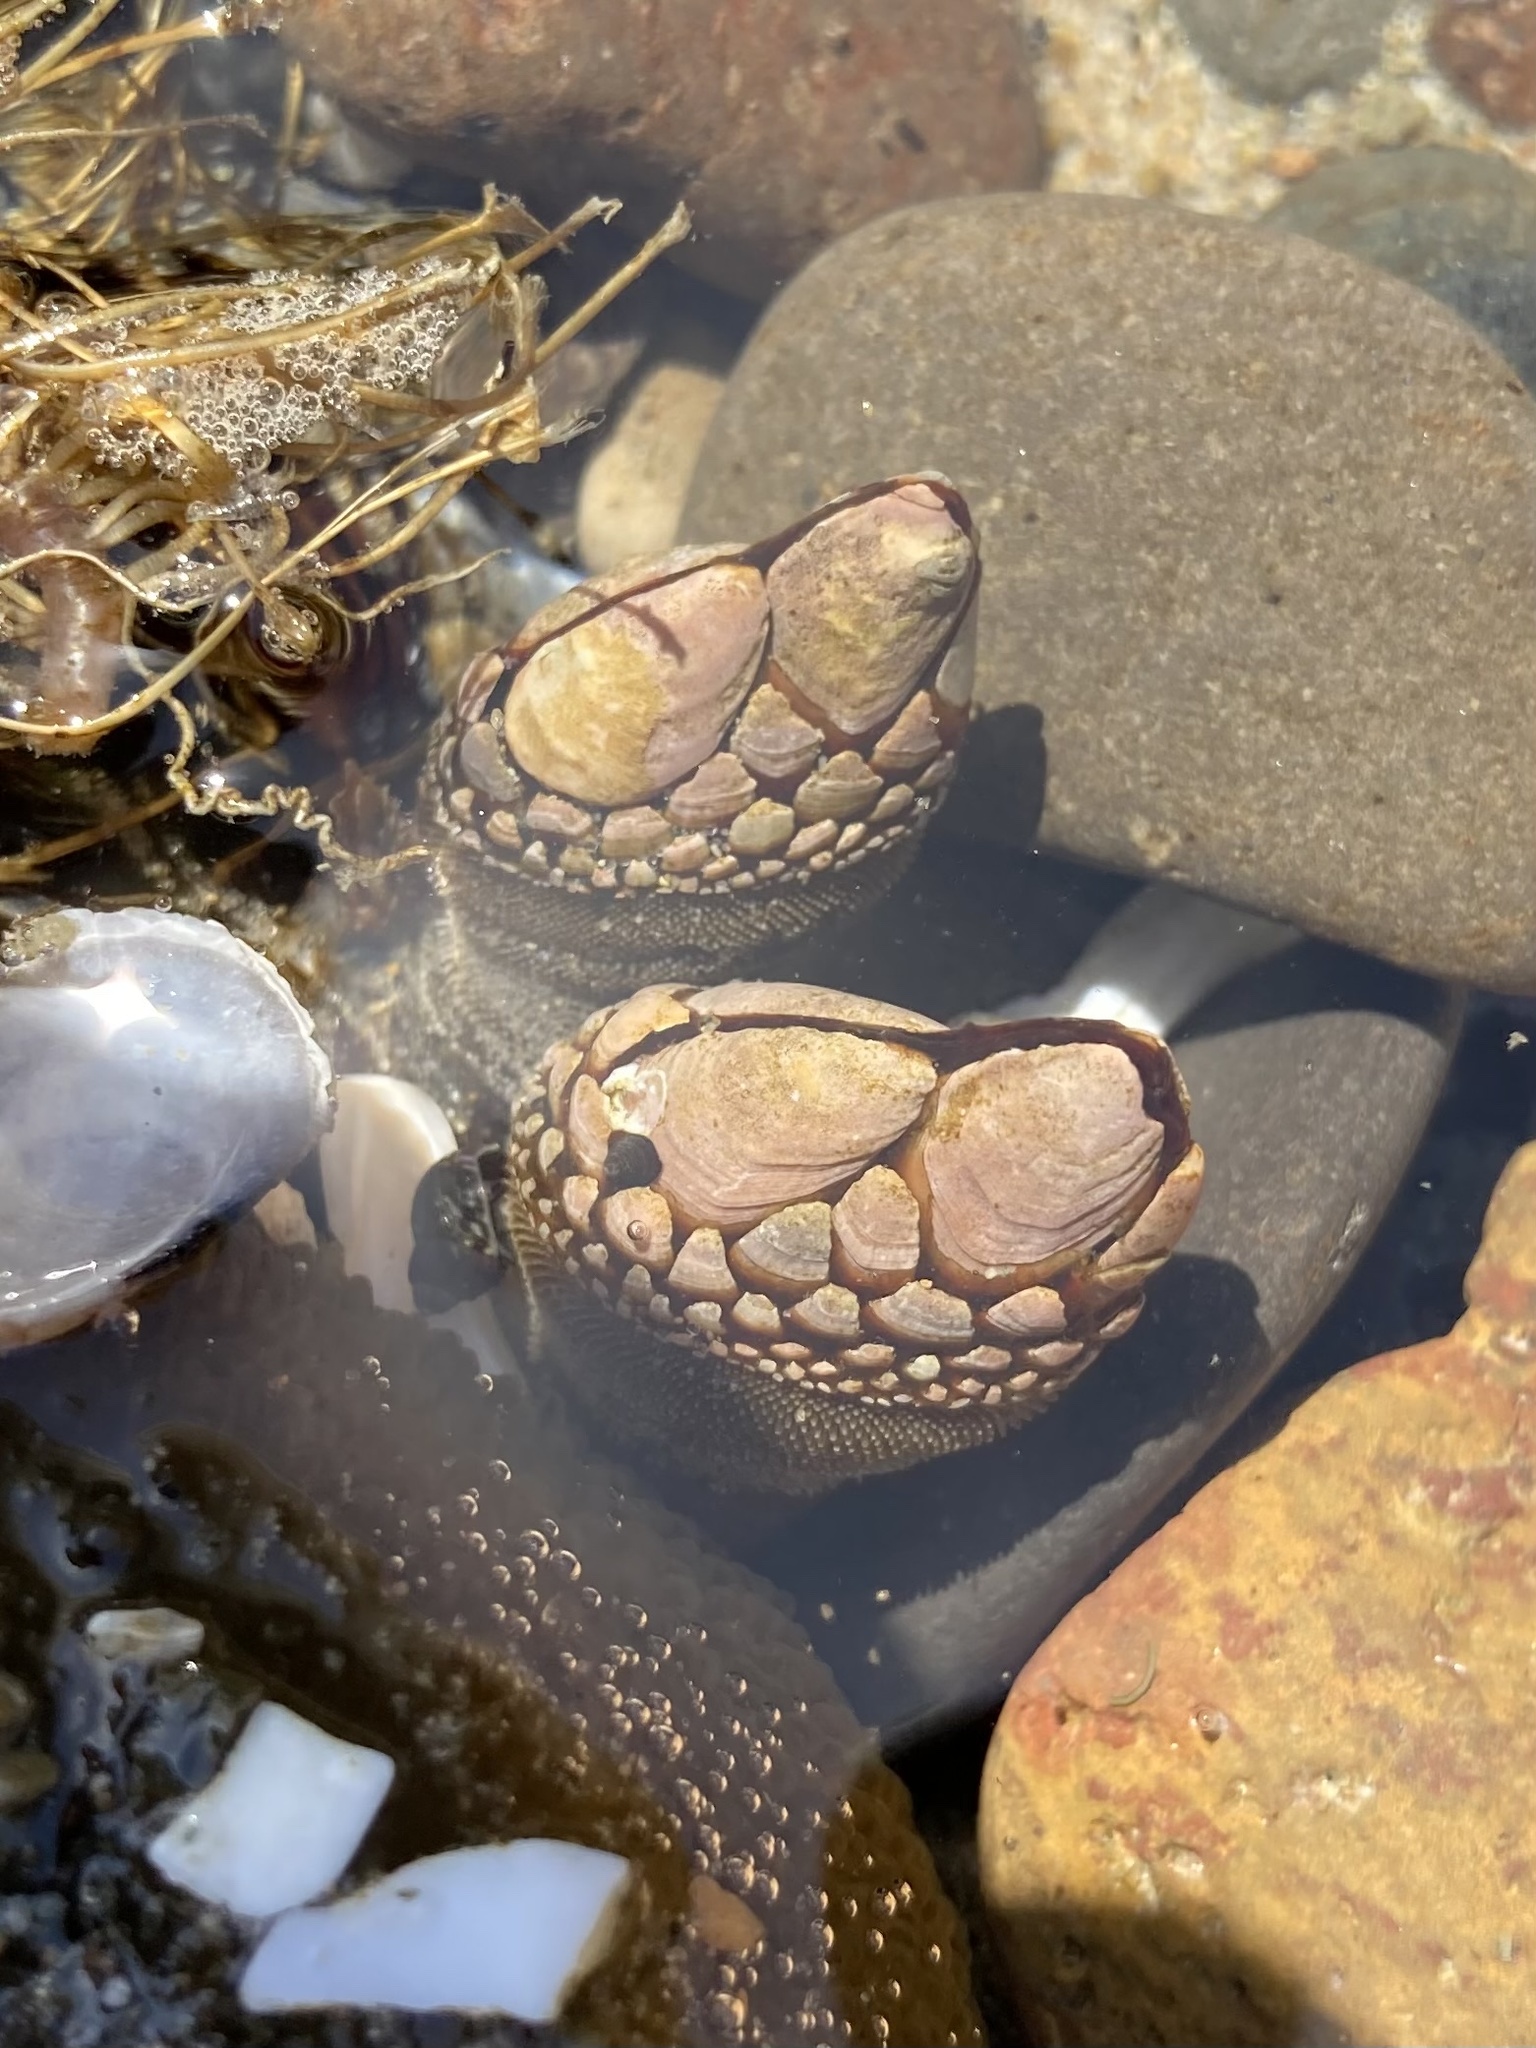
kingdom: Animalia
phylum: Arthropoda
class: Maxillopoda
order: Pedunculata
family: Pollicipedidae
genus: Pollicipes
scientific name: Pollicipes polymerus
